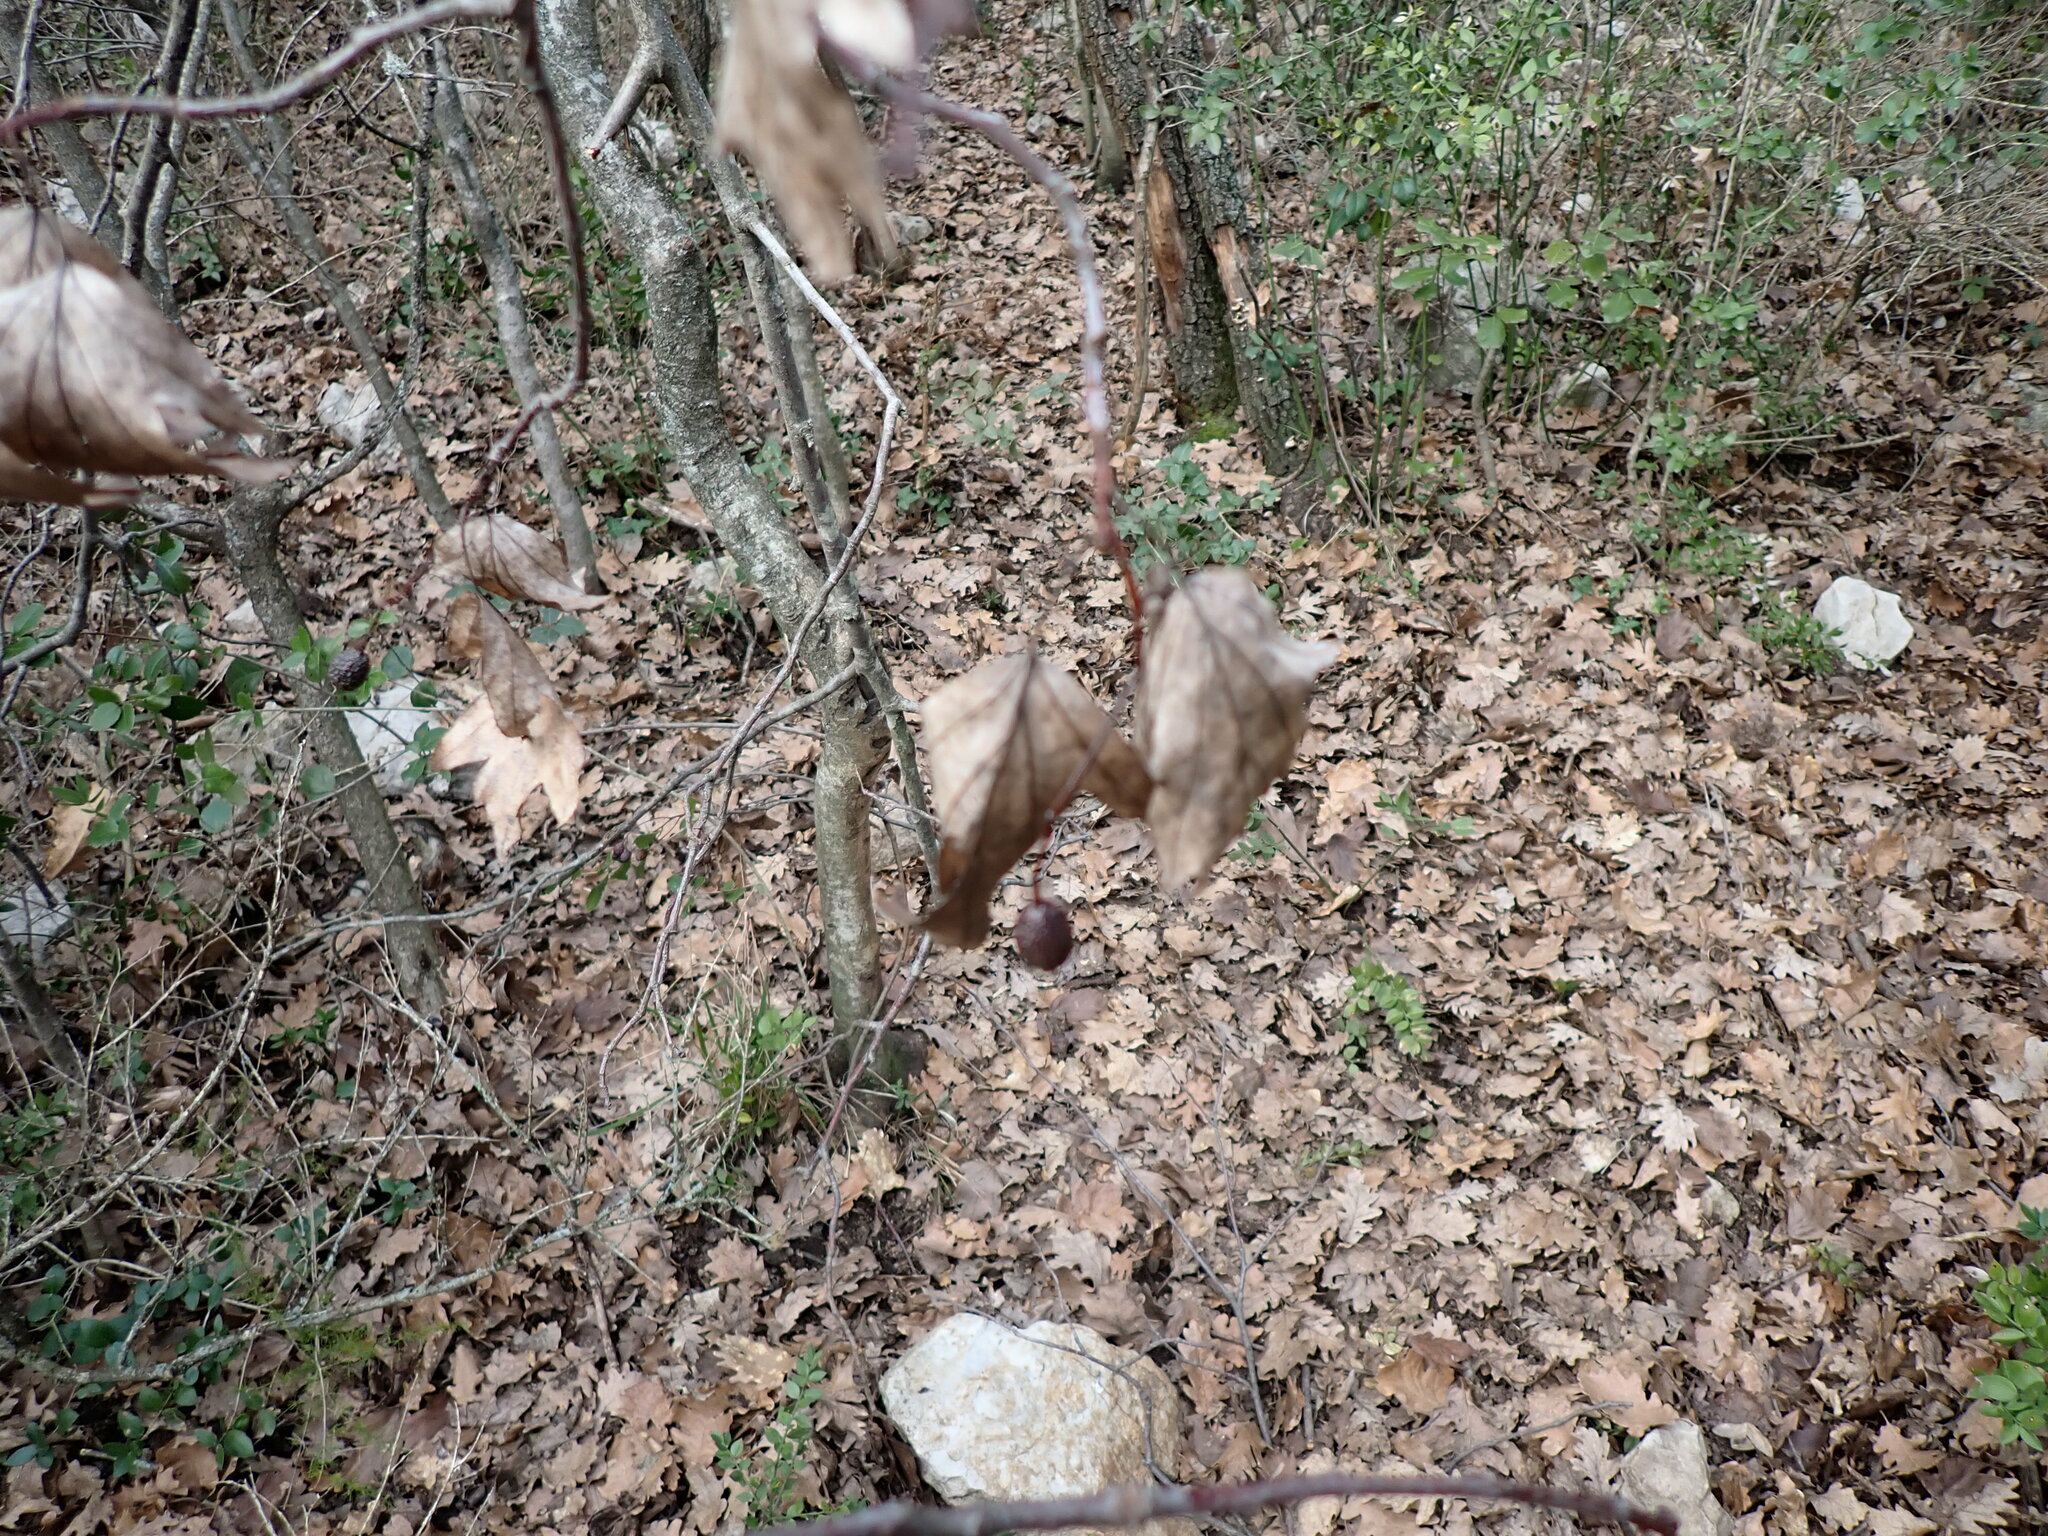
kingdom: Plantae
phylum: Tracheophyta
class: Magnoliopsida
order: Rosales
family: Rosaceae
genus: Torminalis
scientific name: Torminalis glaberrima
